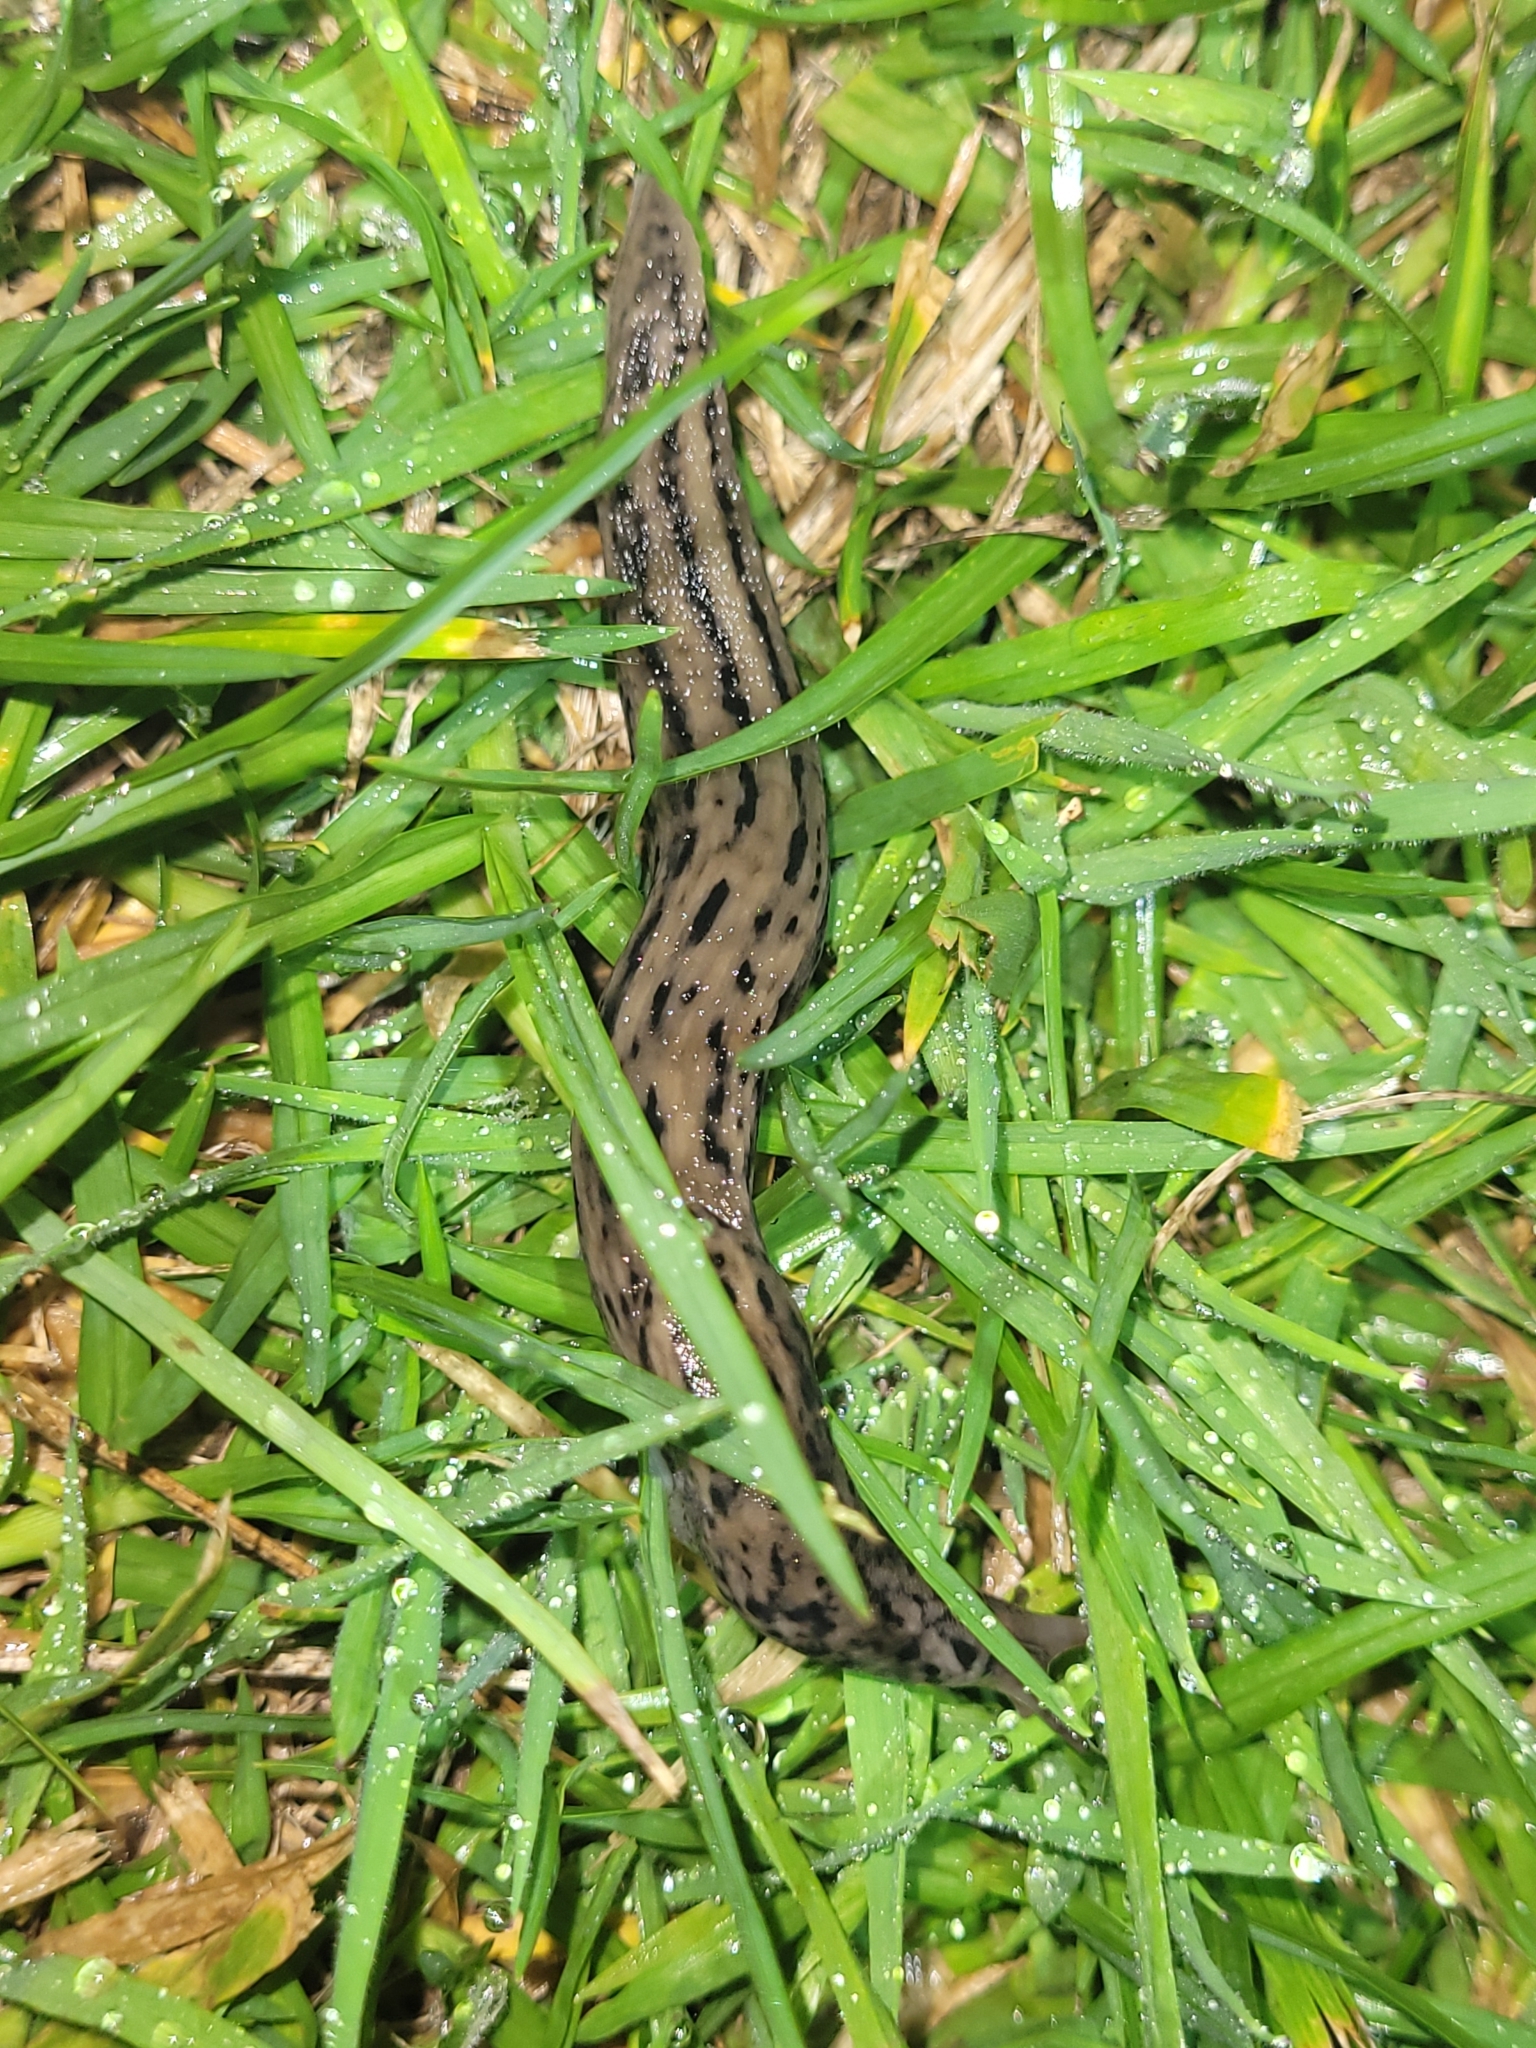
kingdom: Animalia
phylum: Mollusca
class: Gastropoda
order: Stylommatophora
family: Limacidae
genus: Limax
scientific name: Limax maximus
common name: Great grey slug
